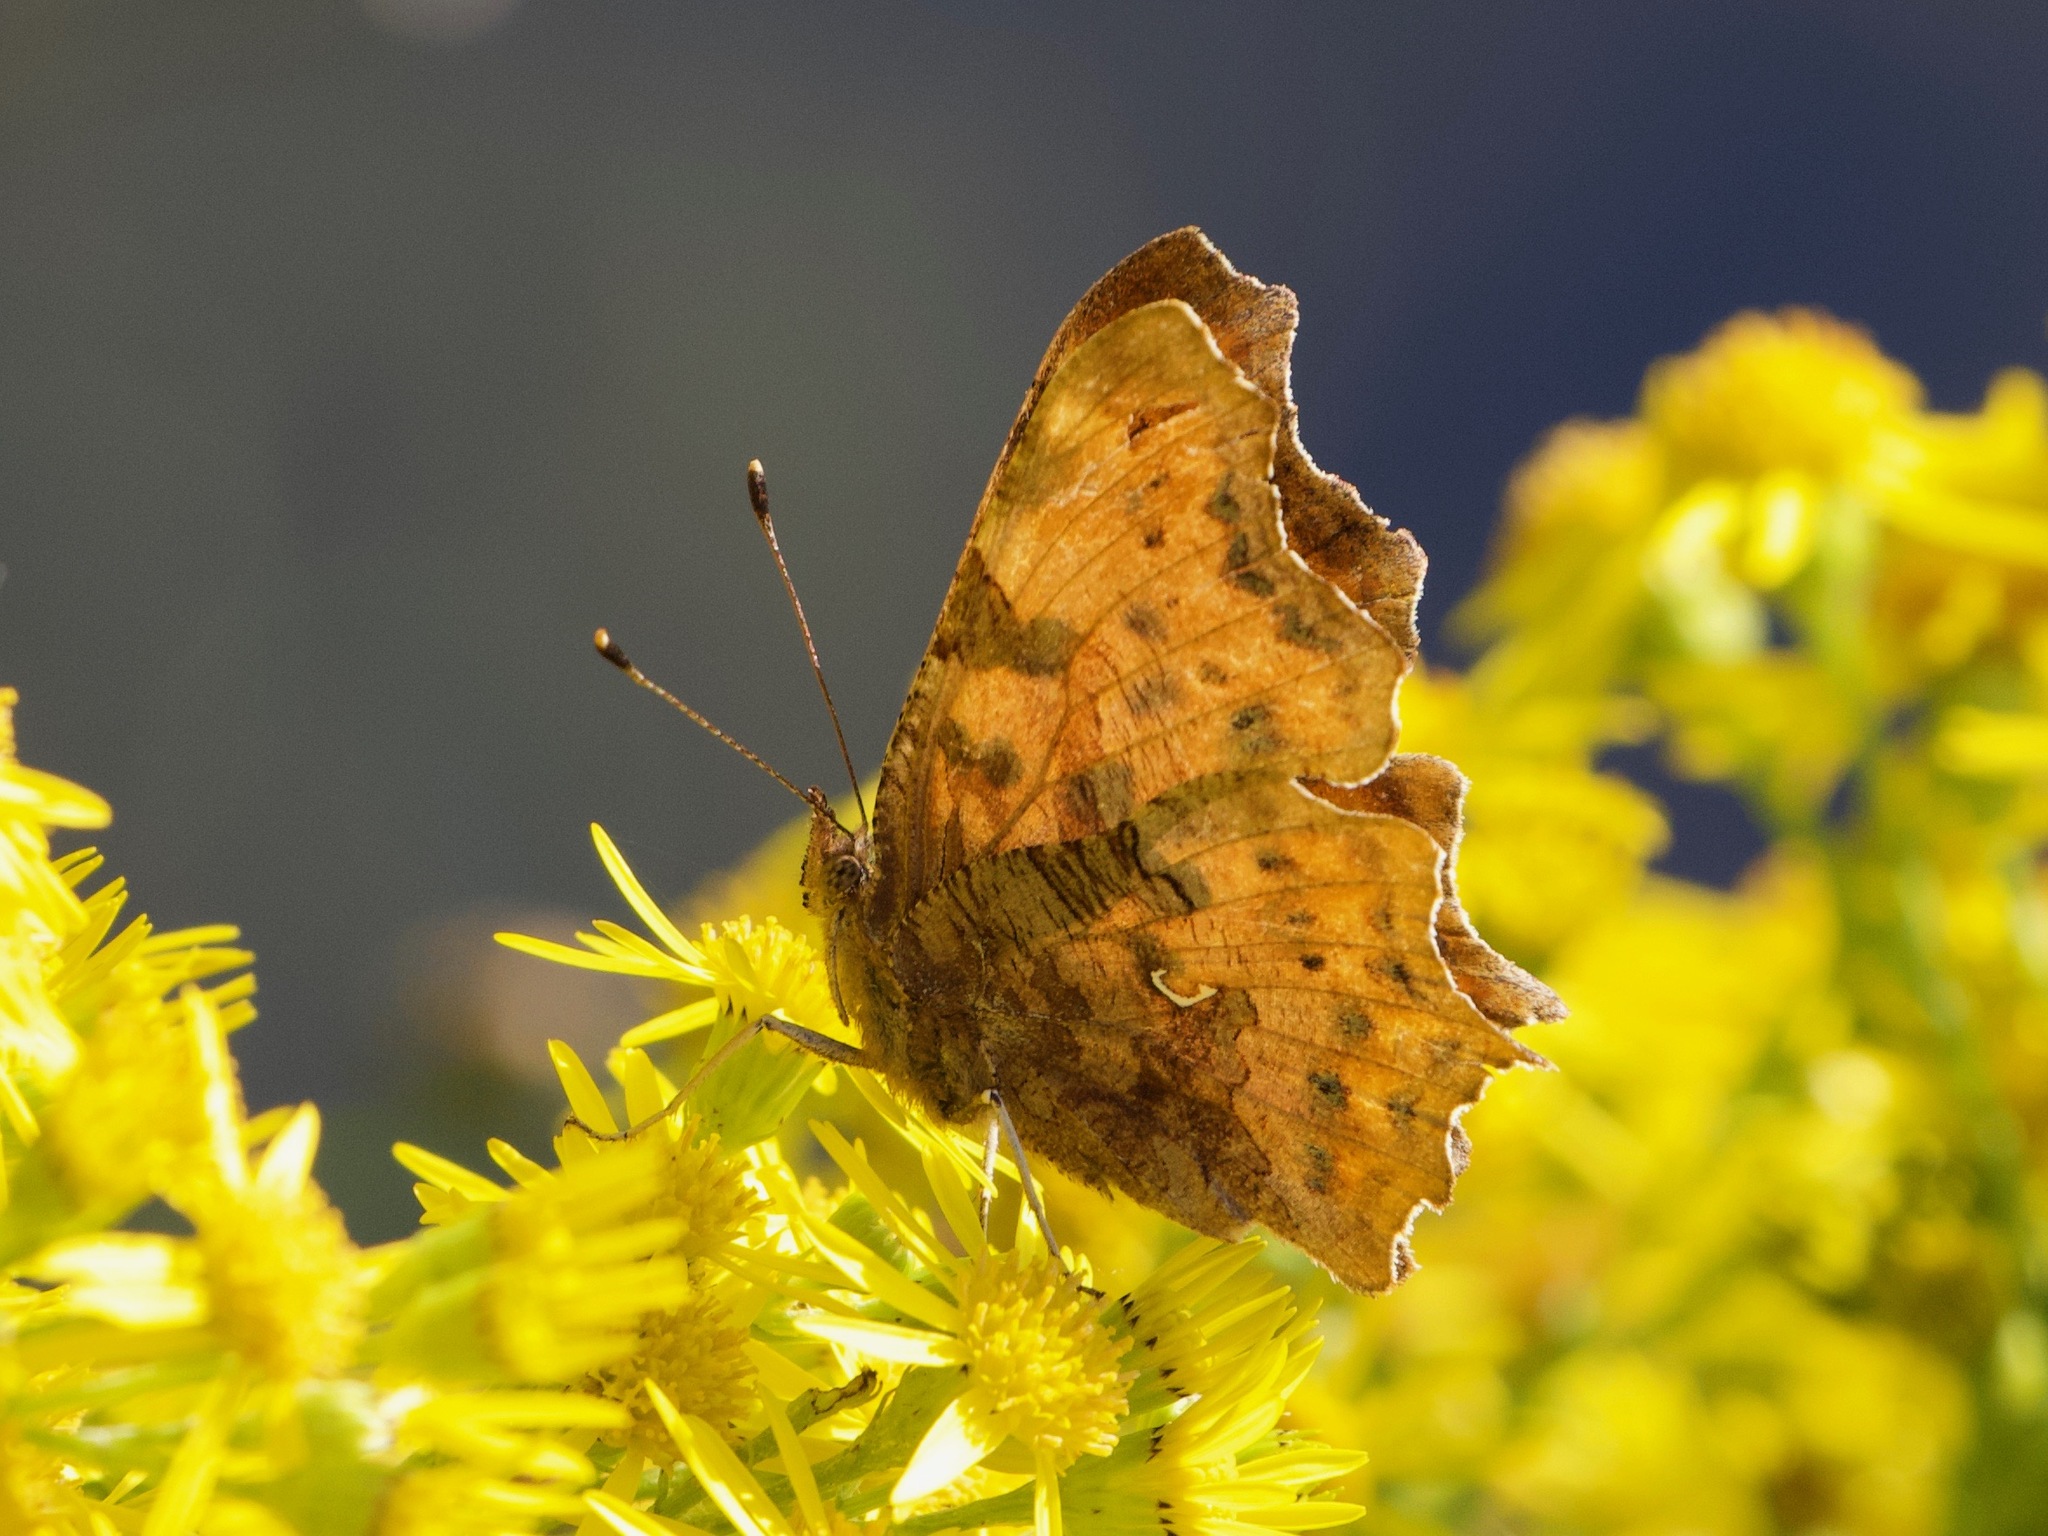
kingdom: Animalia
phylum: Arthropoda
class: Insecta
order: Lepidoptera
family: Nymphalidae
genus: Polygonia
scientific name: Polygonia c-album
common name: Comma
